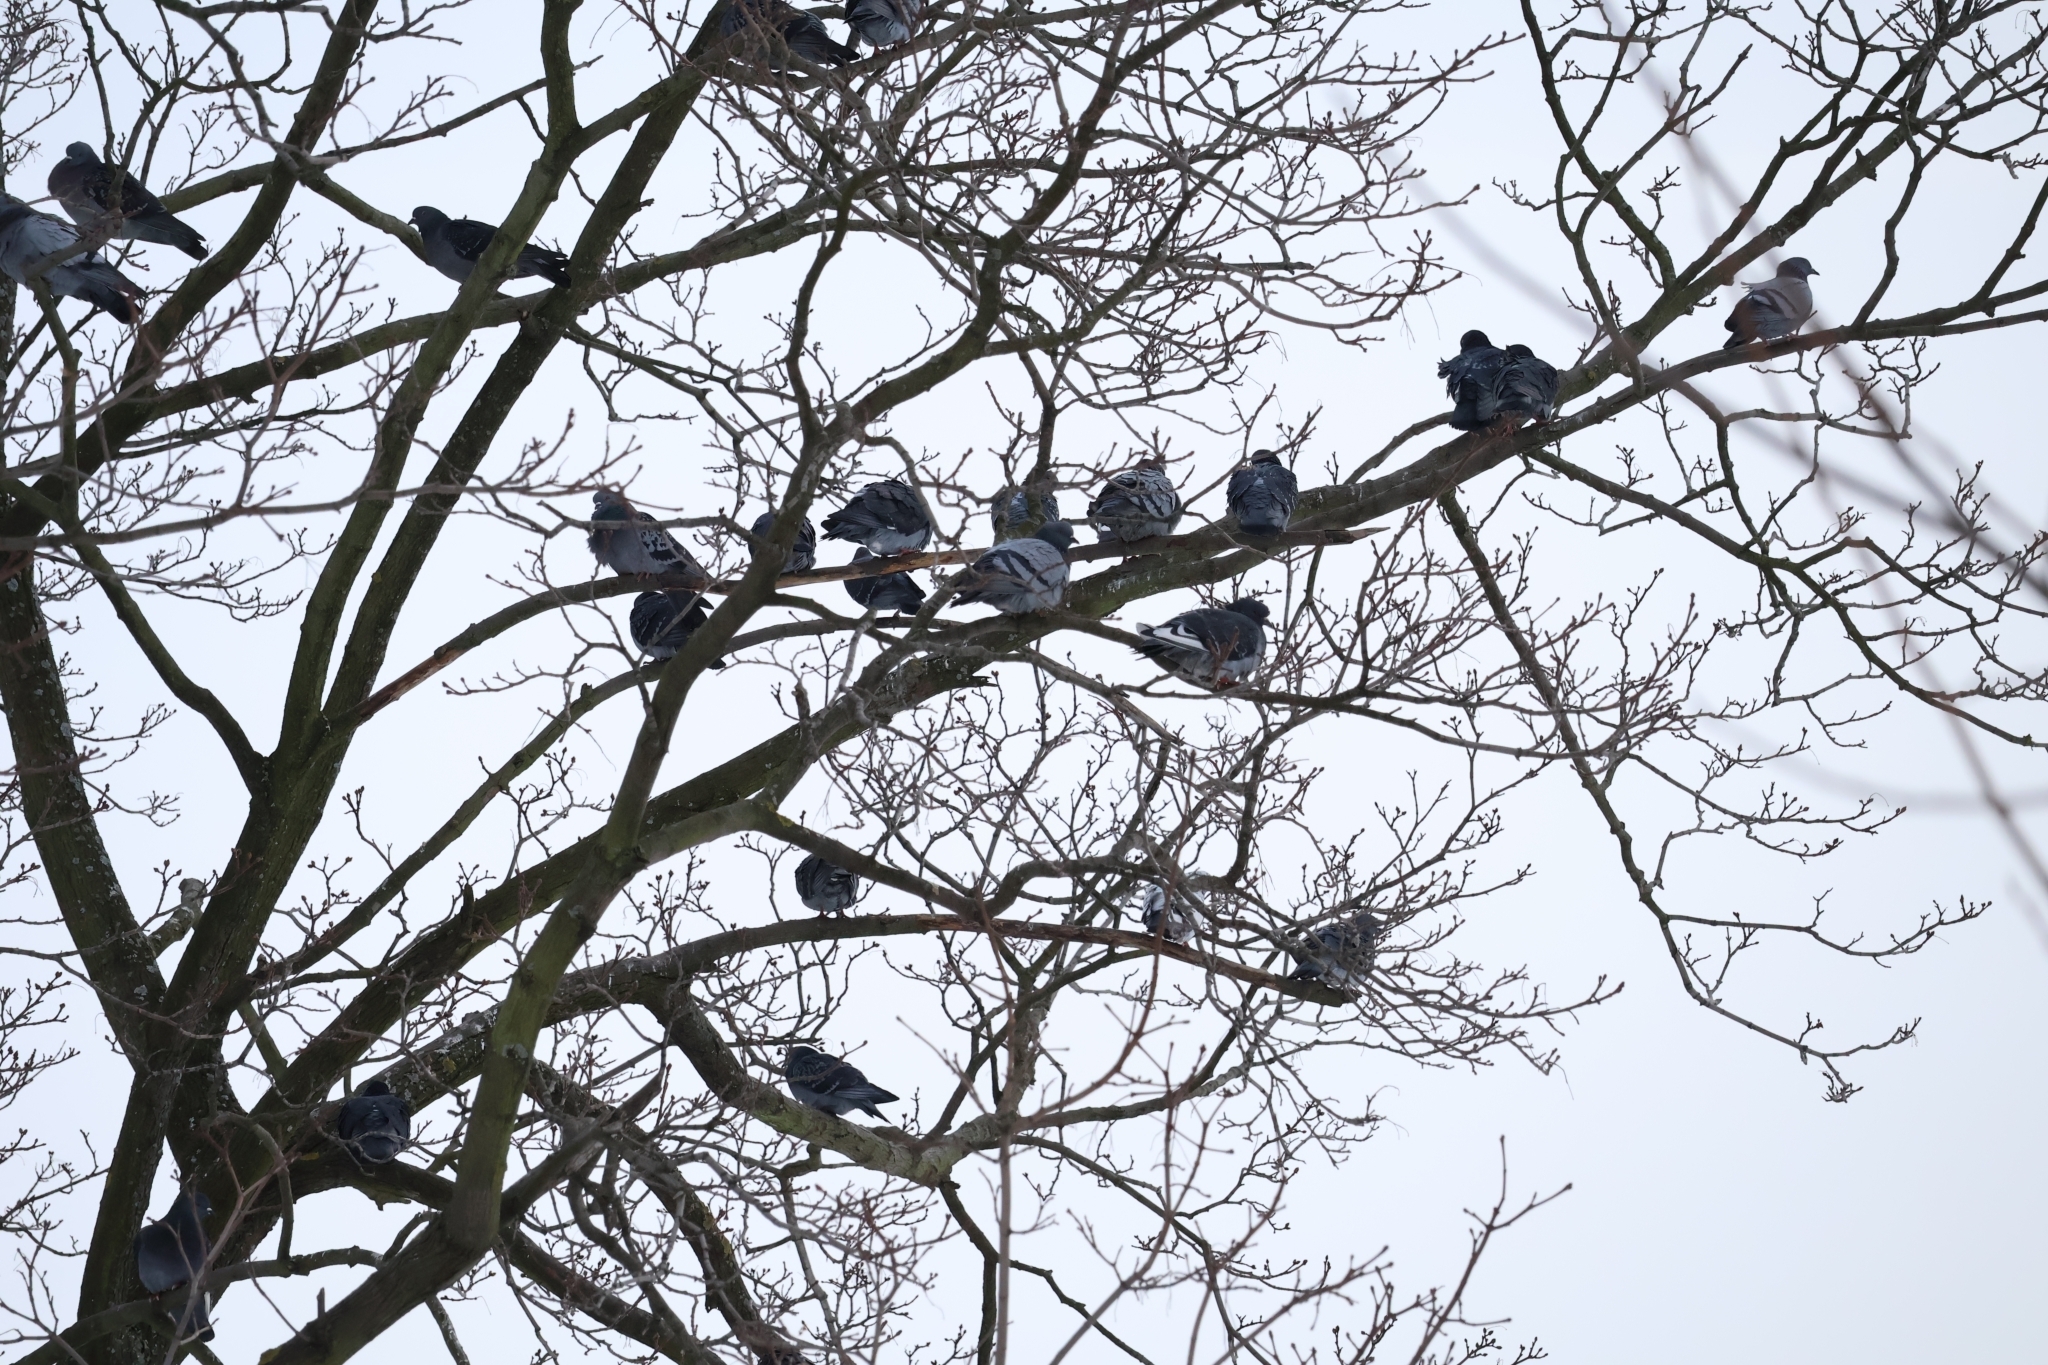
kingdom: Animalia
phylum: Chordata
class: Aves
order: Columbiformes
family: Columbidae
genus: Columba
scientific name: Columba livia
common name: Rock pigeon
